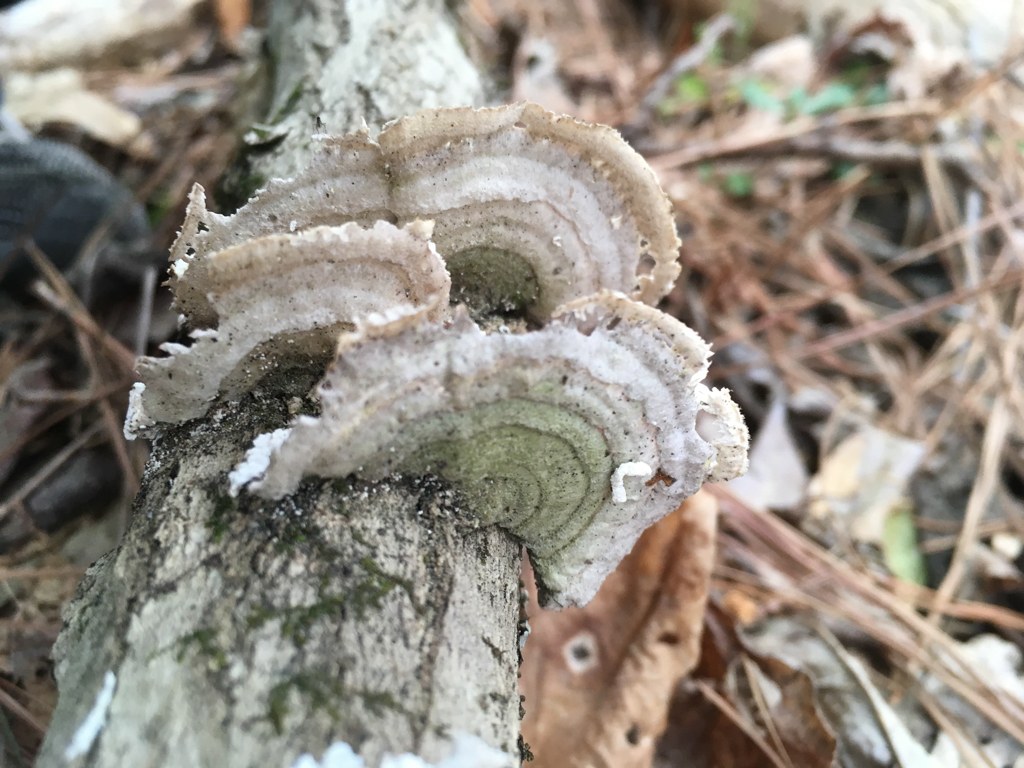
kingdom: Fungi
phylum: Basidiomycota
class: Agaricomycetes
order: Polyporales
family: Polyporaceae
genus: Lenzites
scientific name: Lenzites betulinus
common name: Birch mazegill
